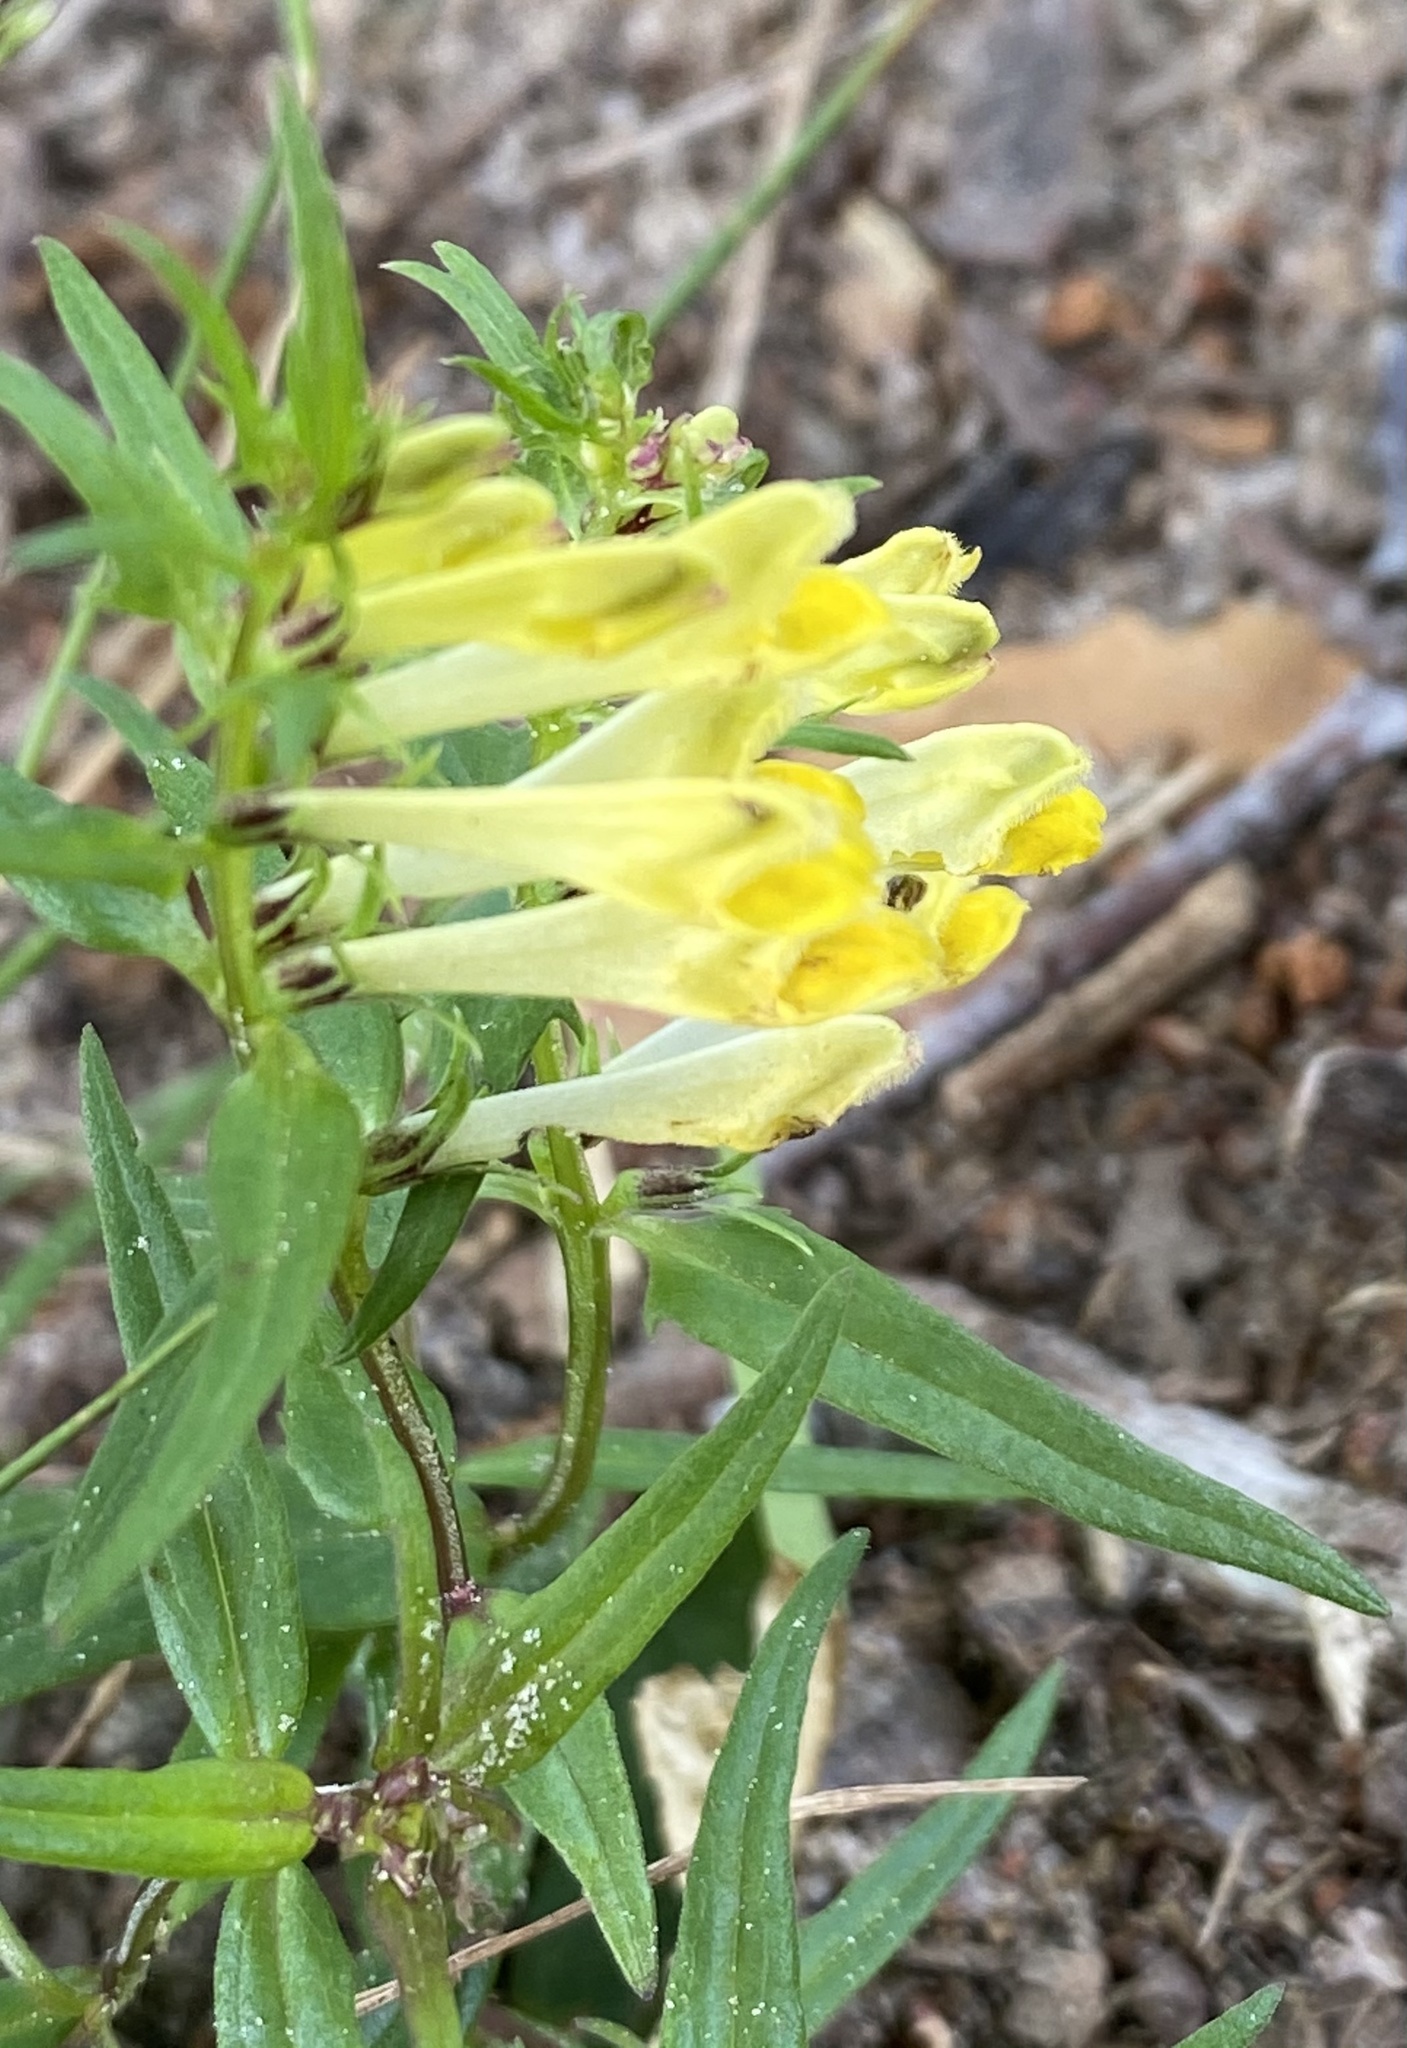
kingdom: Plantae
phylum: Tracheophyta
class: Magnoliopsida
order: Lamiales
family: Orobanchaceae
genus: Melampyrum
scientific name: Melampyrum pratense
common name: Common cow-wheat
